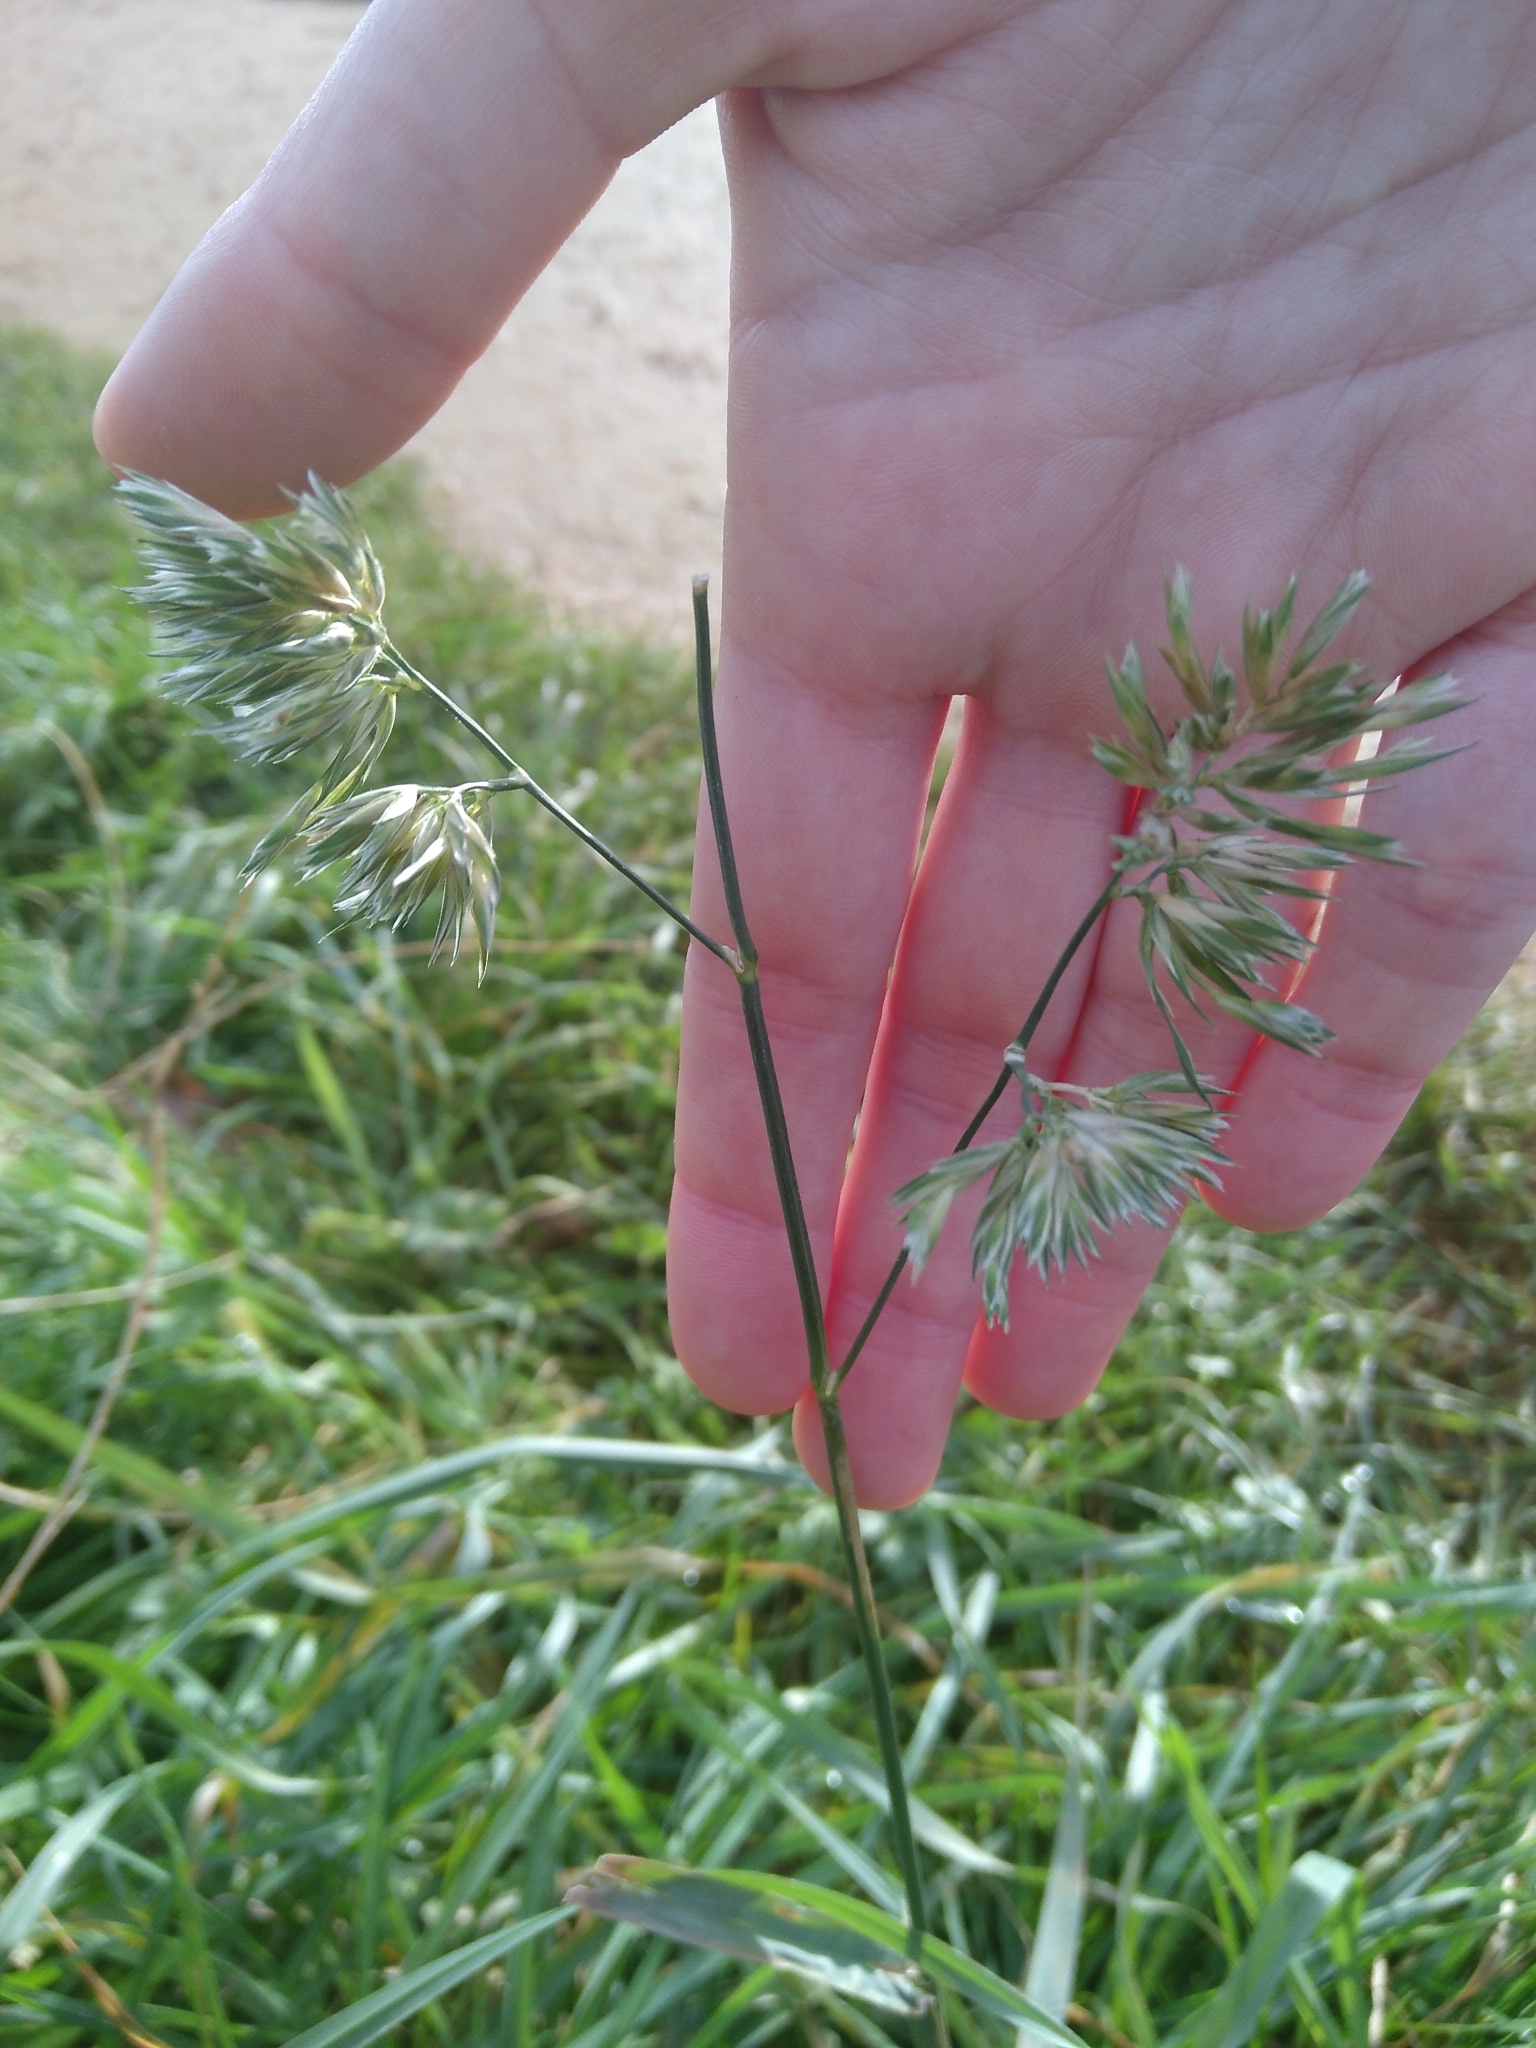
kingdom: Plantae
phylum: Tracheophyta
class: Liliopsida
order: Poales
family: Poaceae
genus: Dactylis
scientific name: Dactylis glomerata
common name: Orchardgrass
